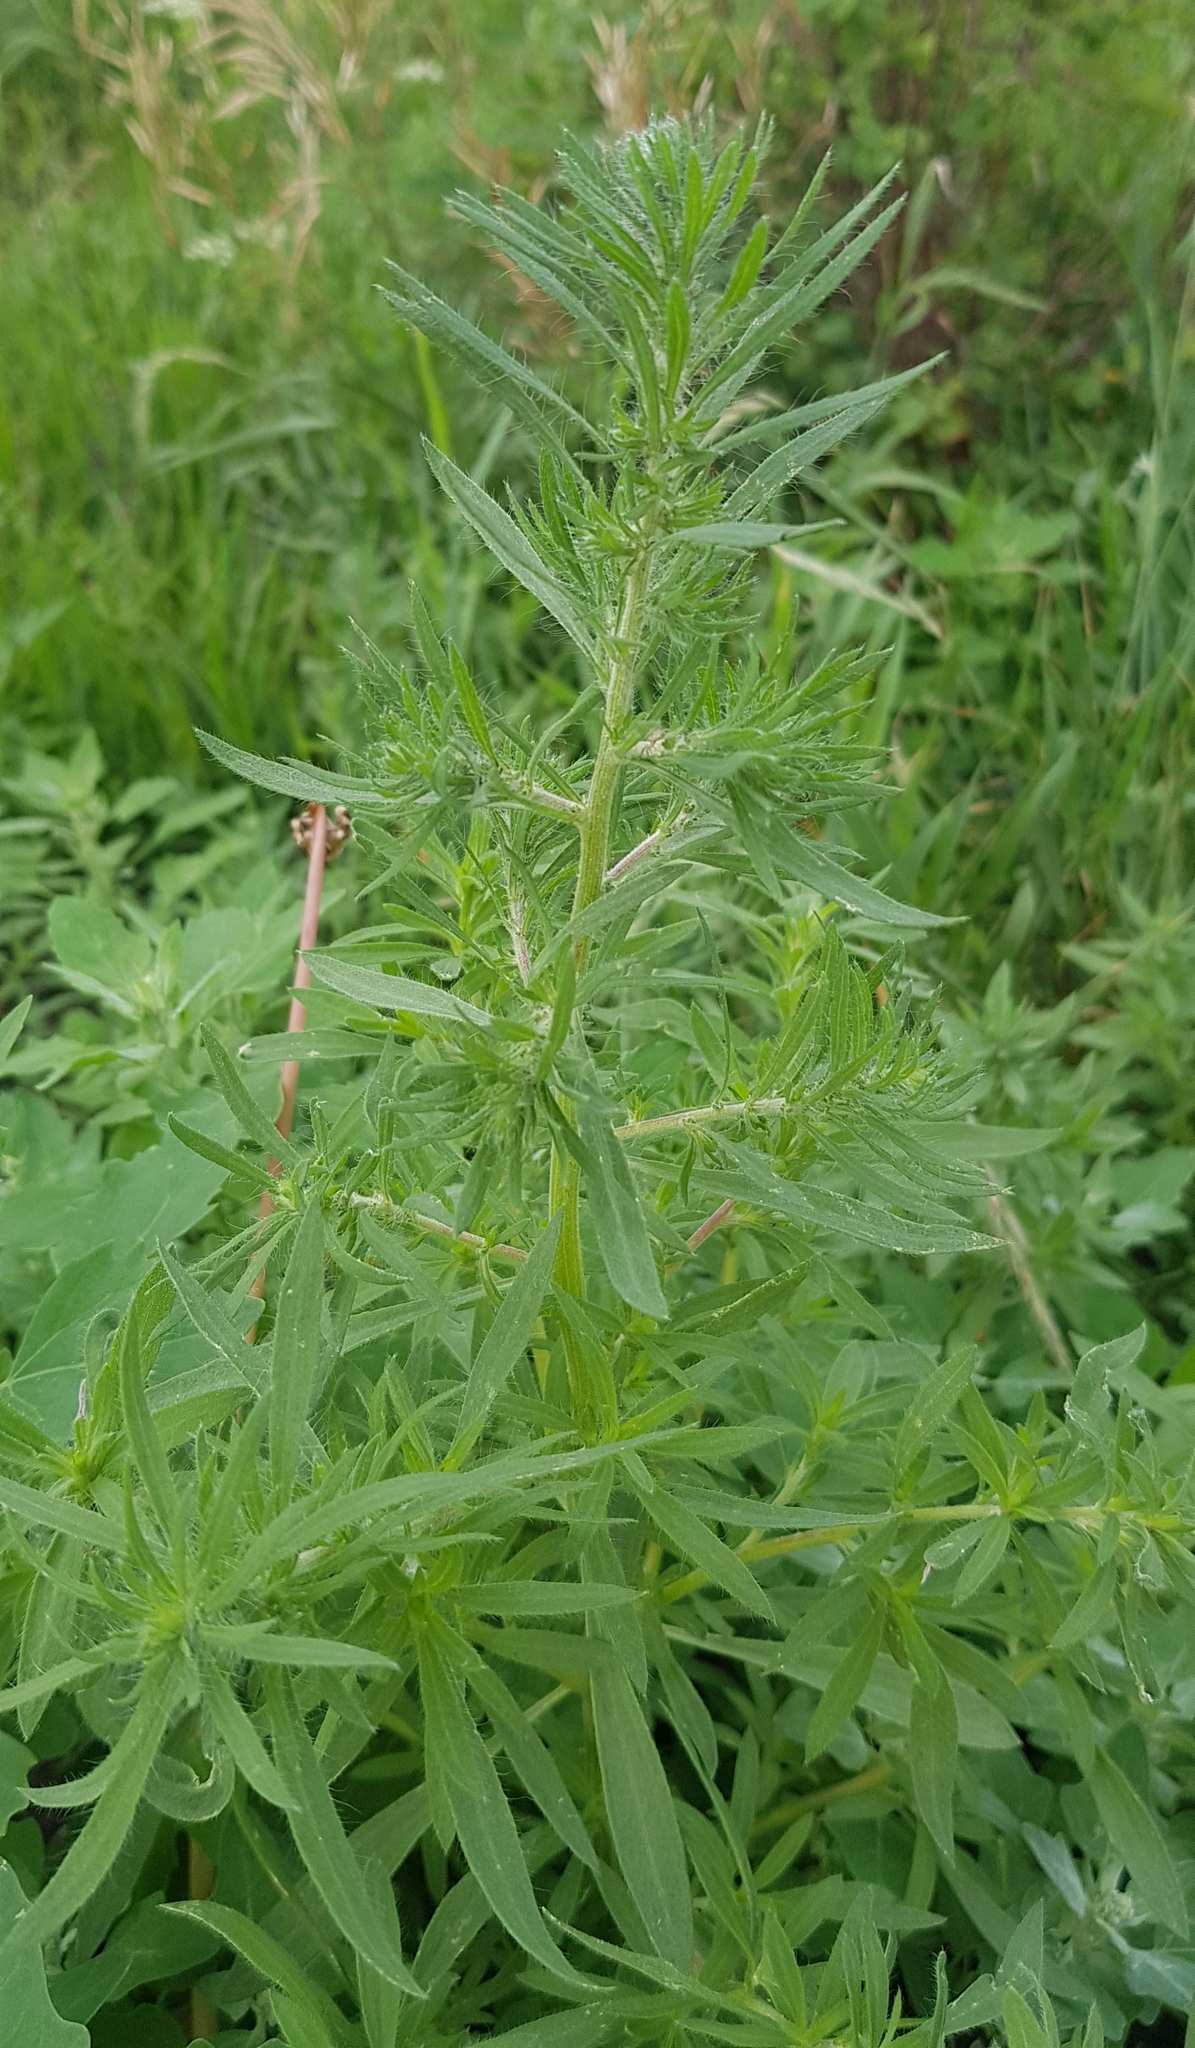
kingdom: Plantae
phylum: Tracheophyta
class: Magnoliopsida
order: Caryophyllales
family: Amaranthaceae
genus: Bassia
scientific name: Bassia scoparia
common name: Belvedere
